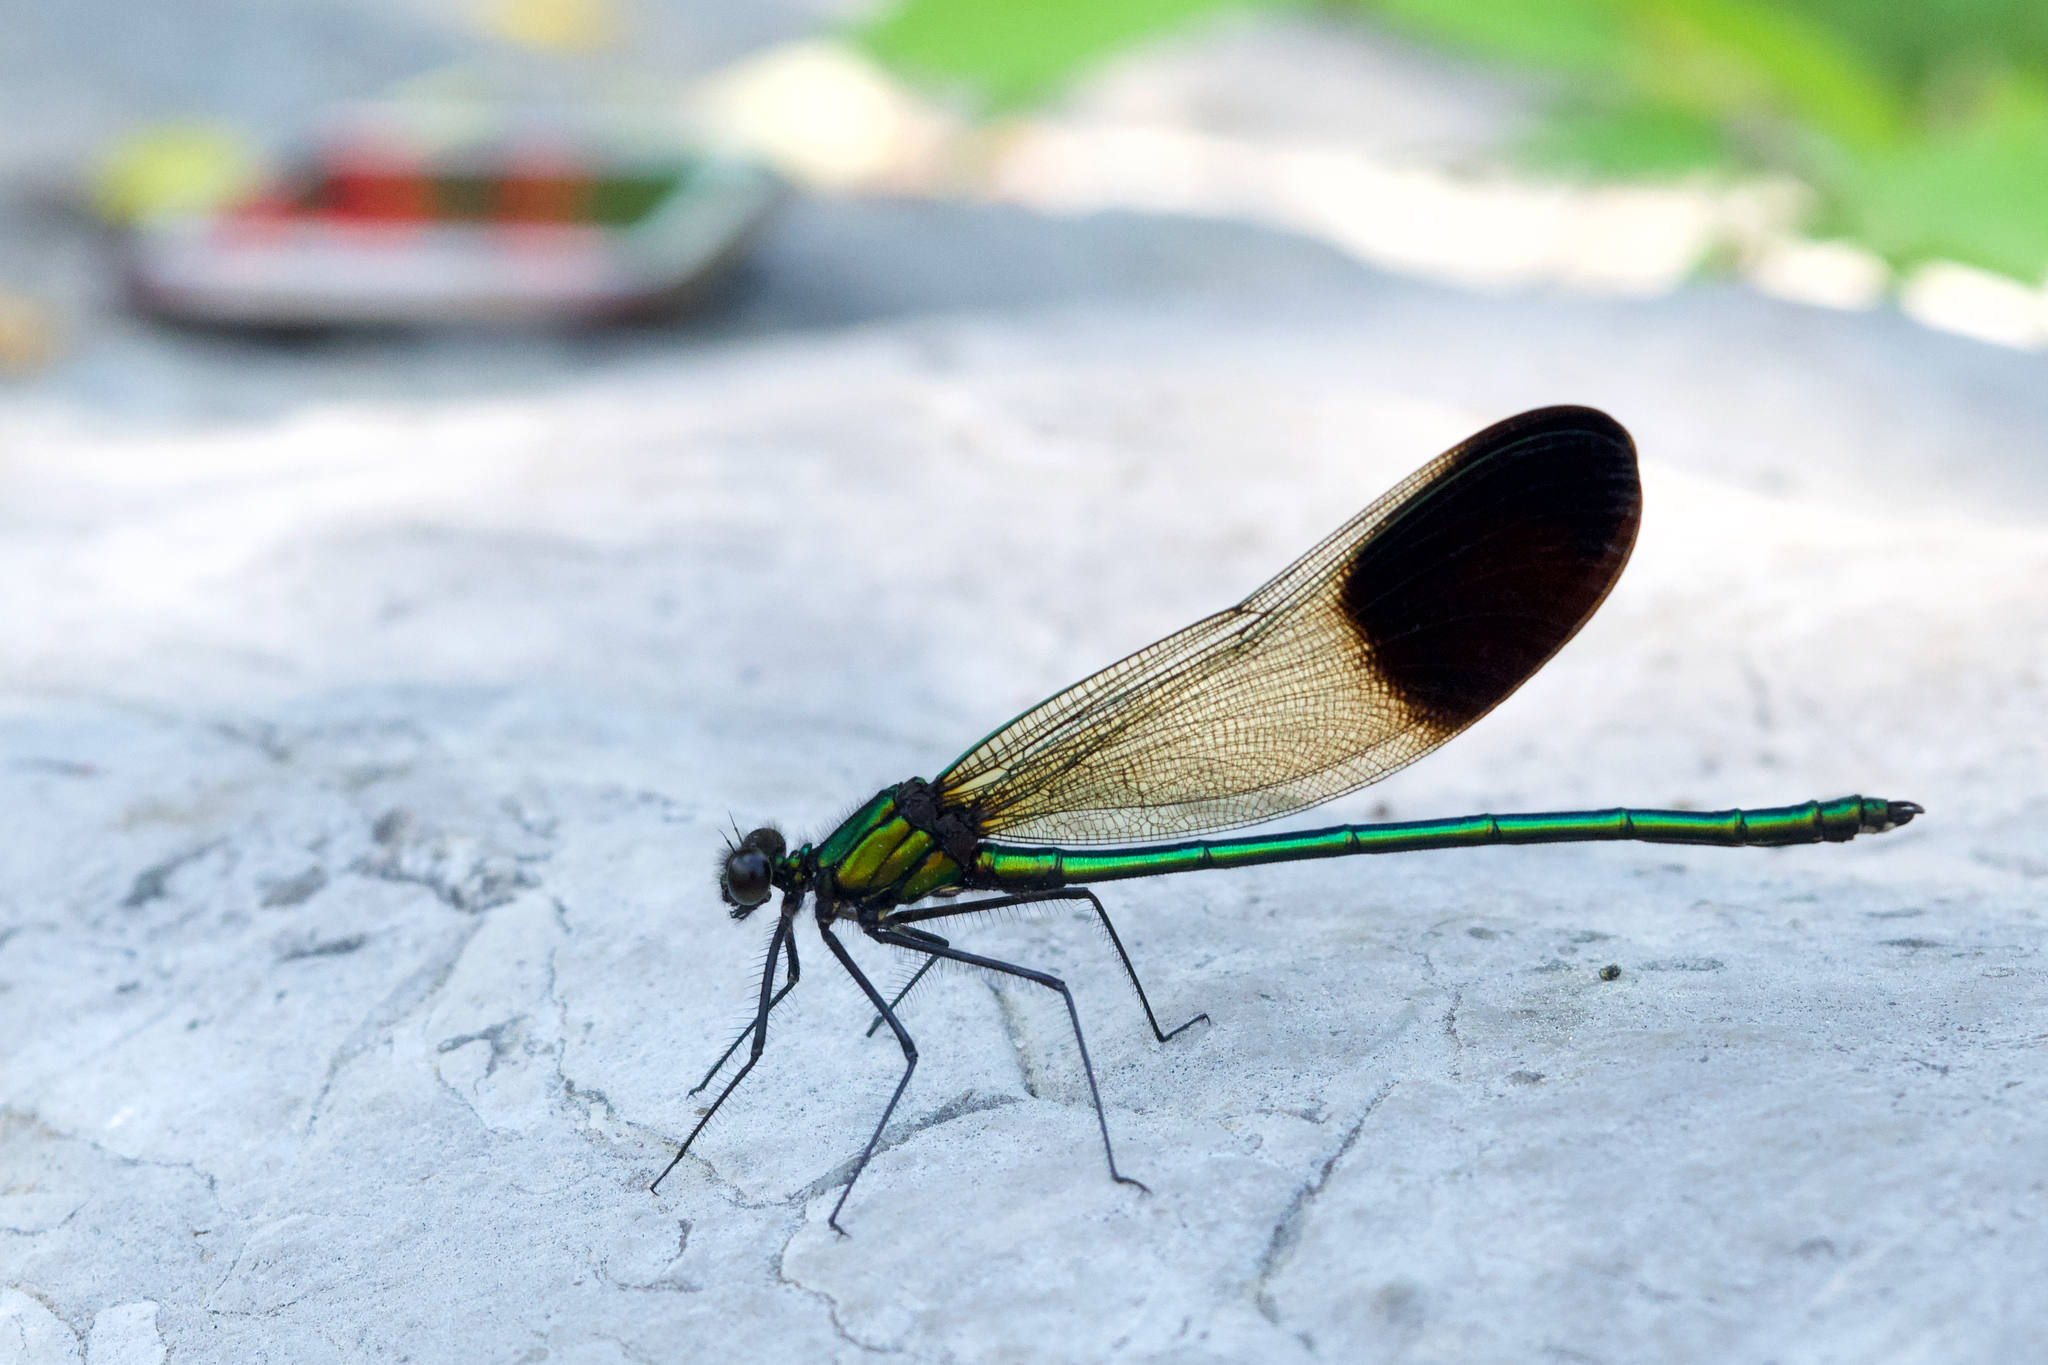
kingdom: Animalia
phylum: Arthropoda
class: Insecta
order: Odonata
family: Calopterygidae
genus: Calopteryx
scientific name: Calopteryx aequabilis
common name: River jewelwing
